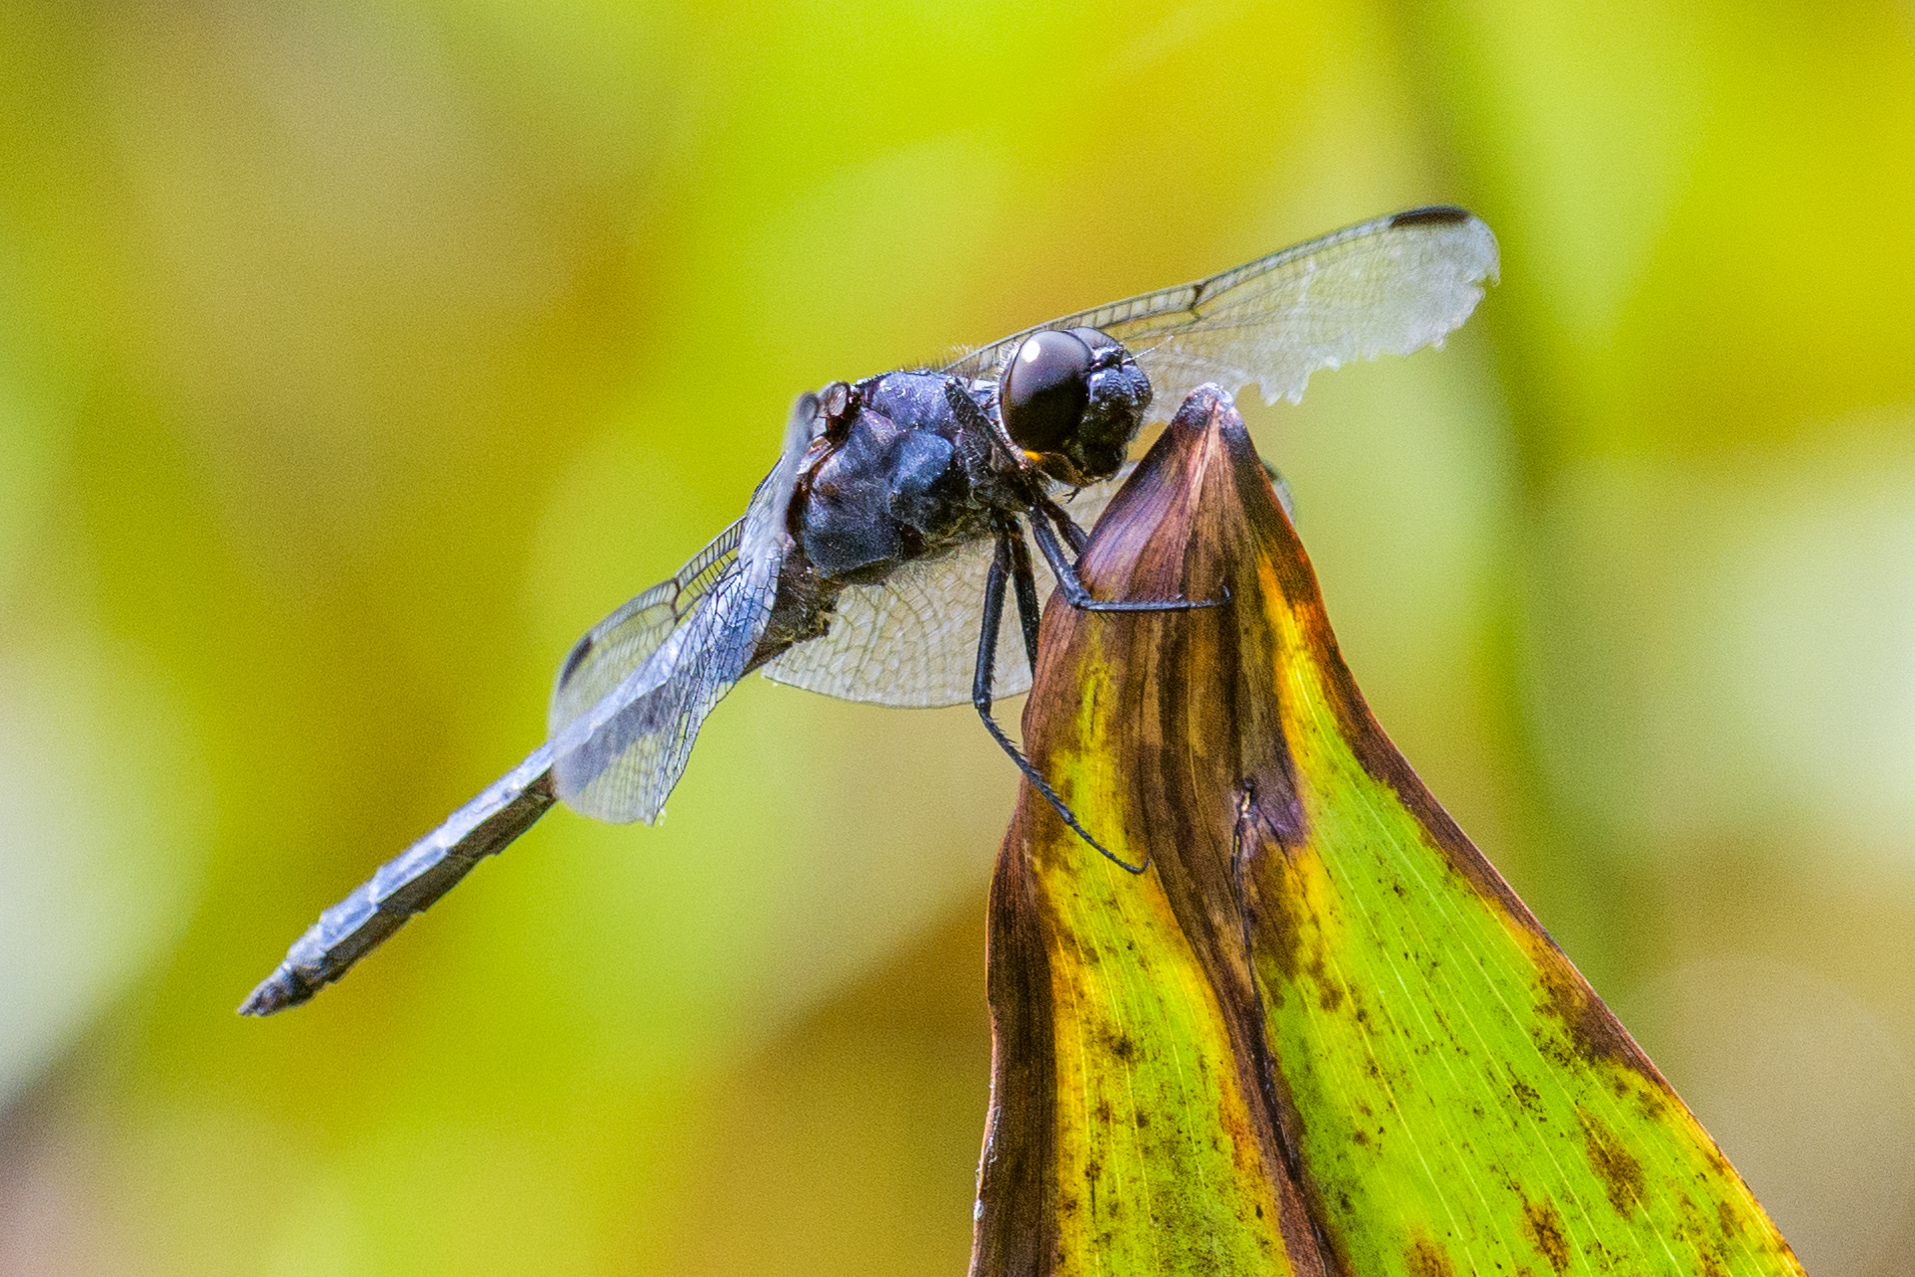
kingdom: Animalia
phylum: Arthropoda
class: Insecta
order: Odonata
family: Libellulidae
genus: Libellula
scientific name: Libellula incesta
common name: Slaty skimmer
